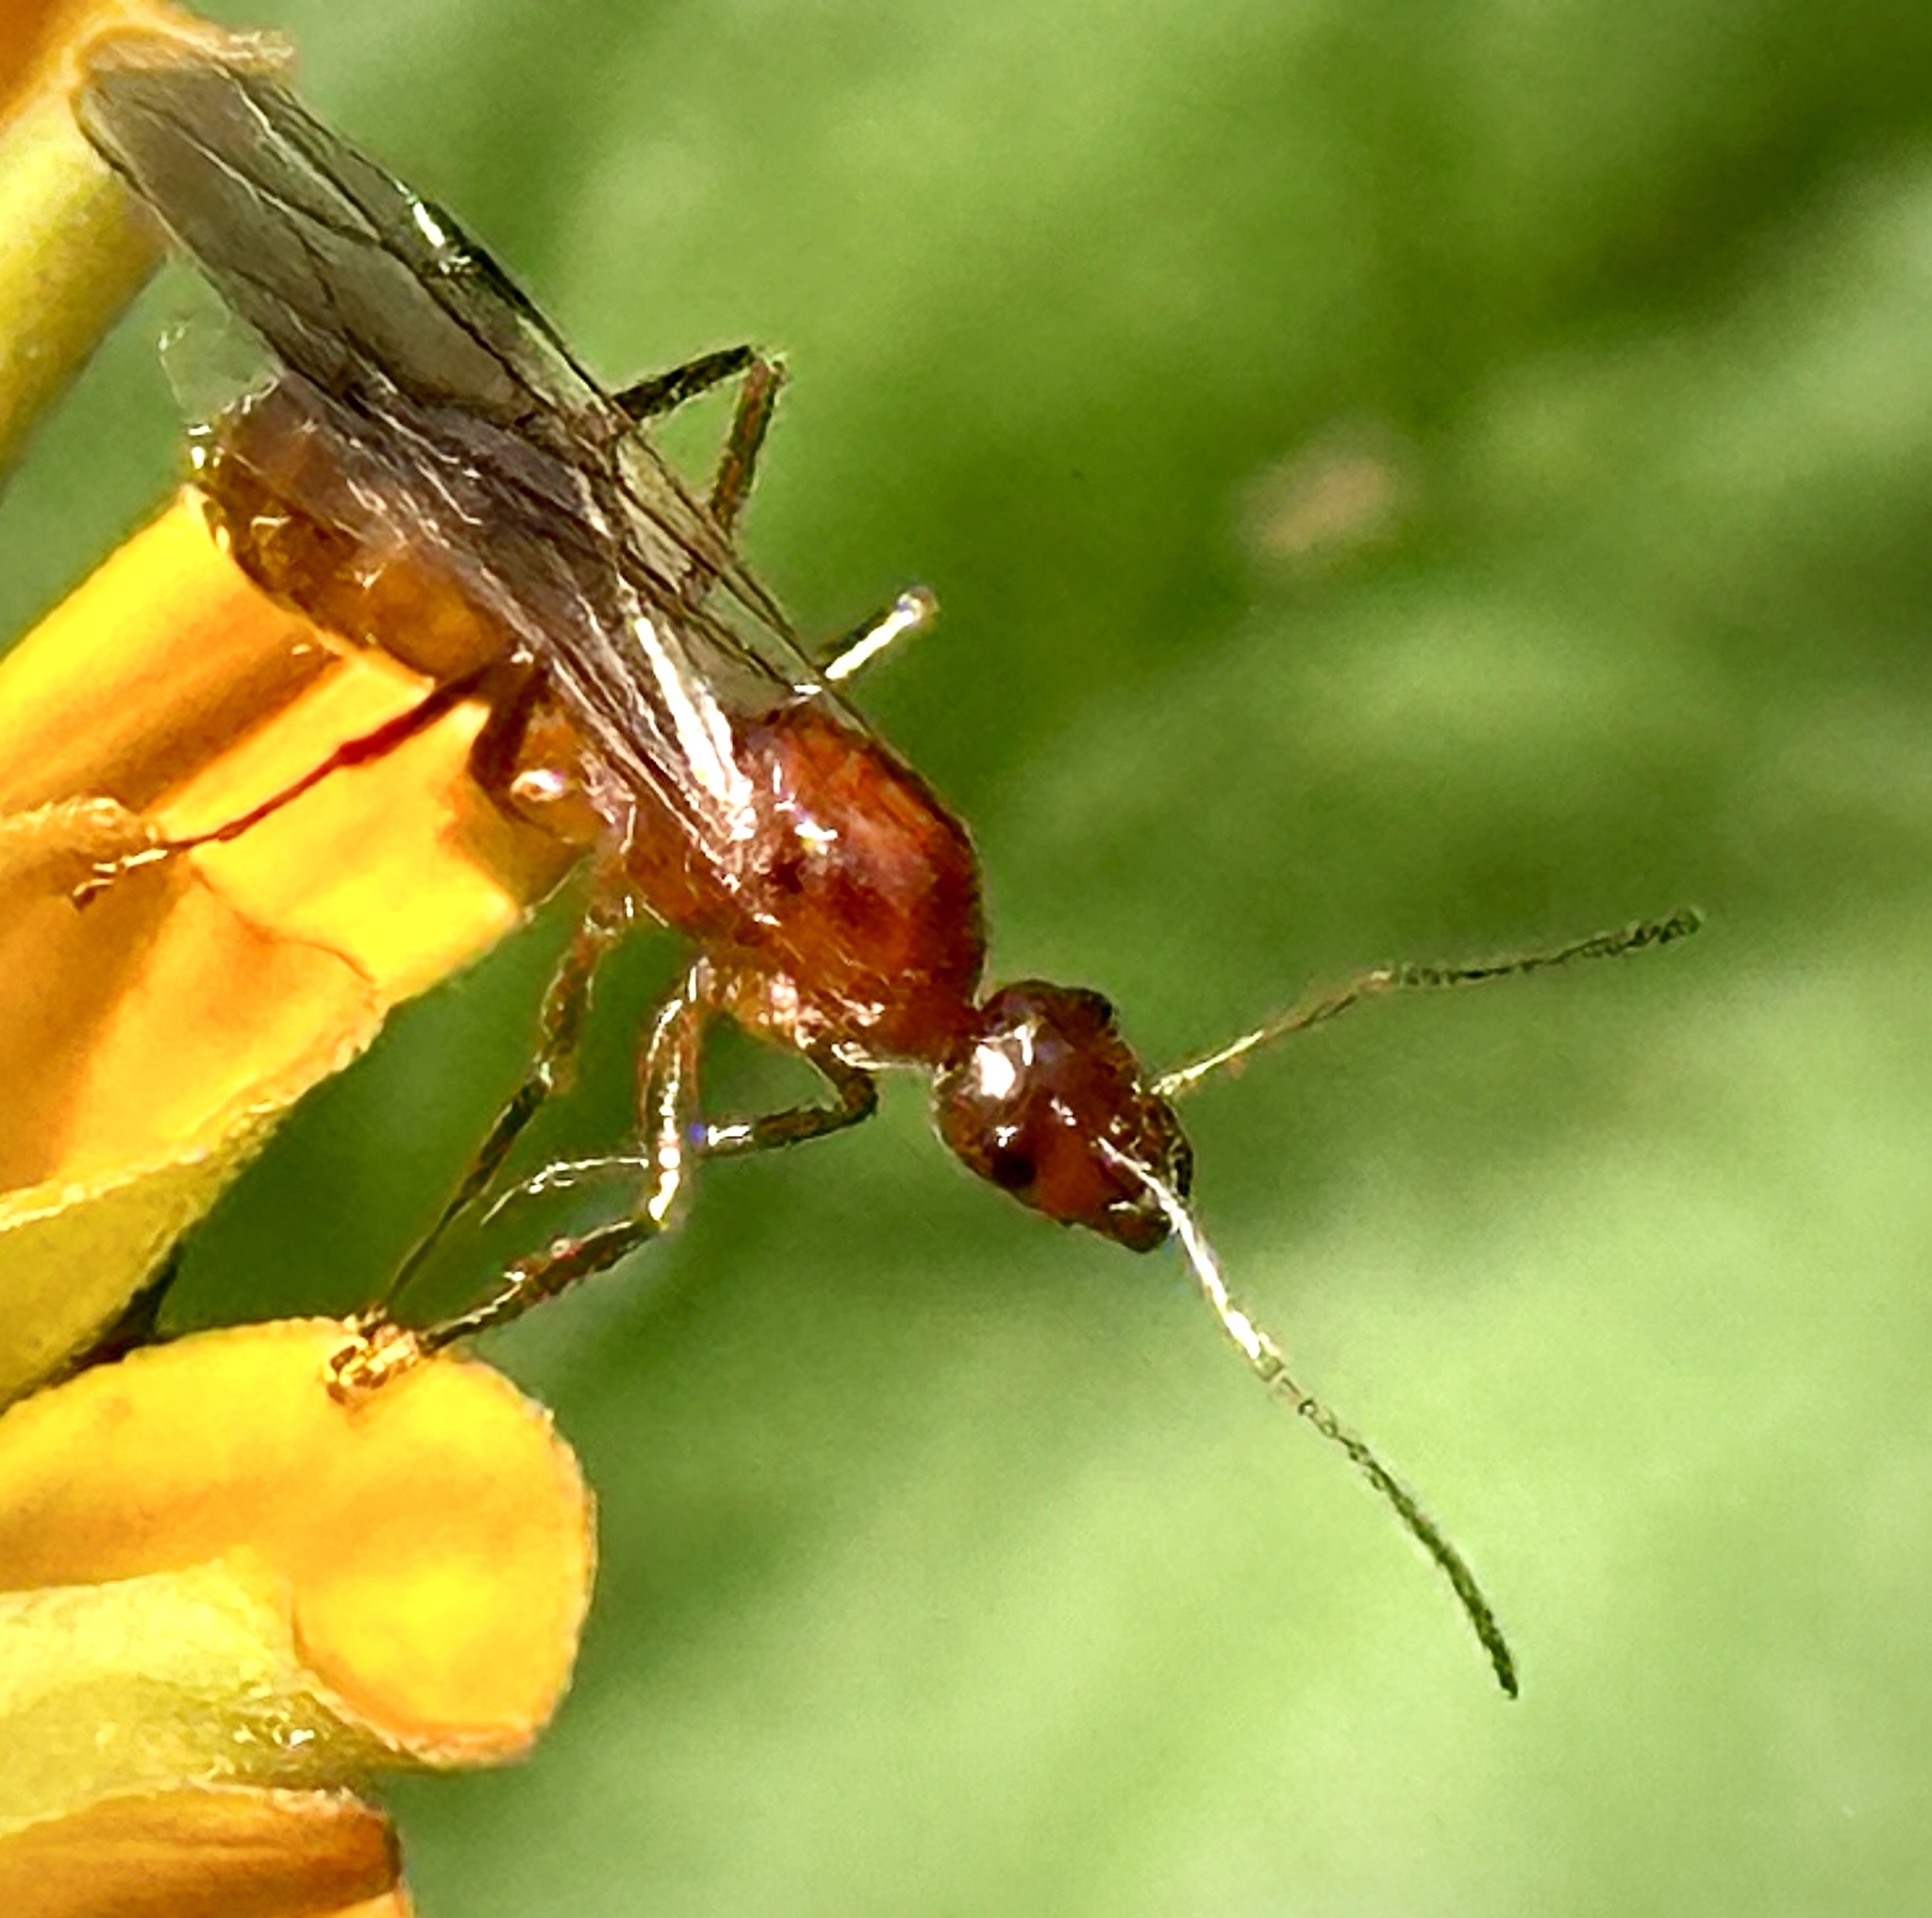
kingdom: Animalia
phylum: Arthropoda
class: Insecta
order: Hymenoptera
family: Formicidae
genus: Formica
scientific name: Formica pallidefulva
